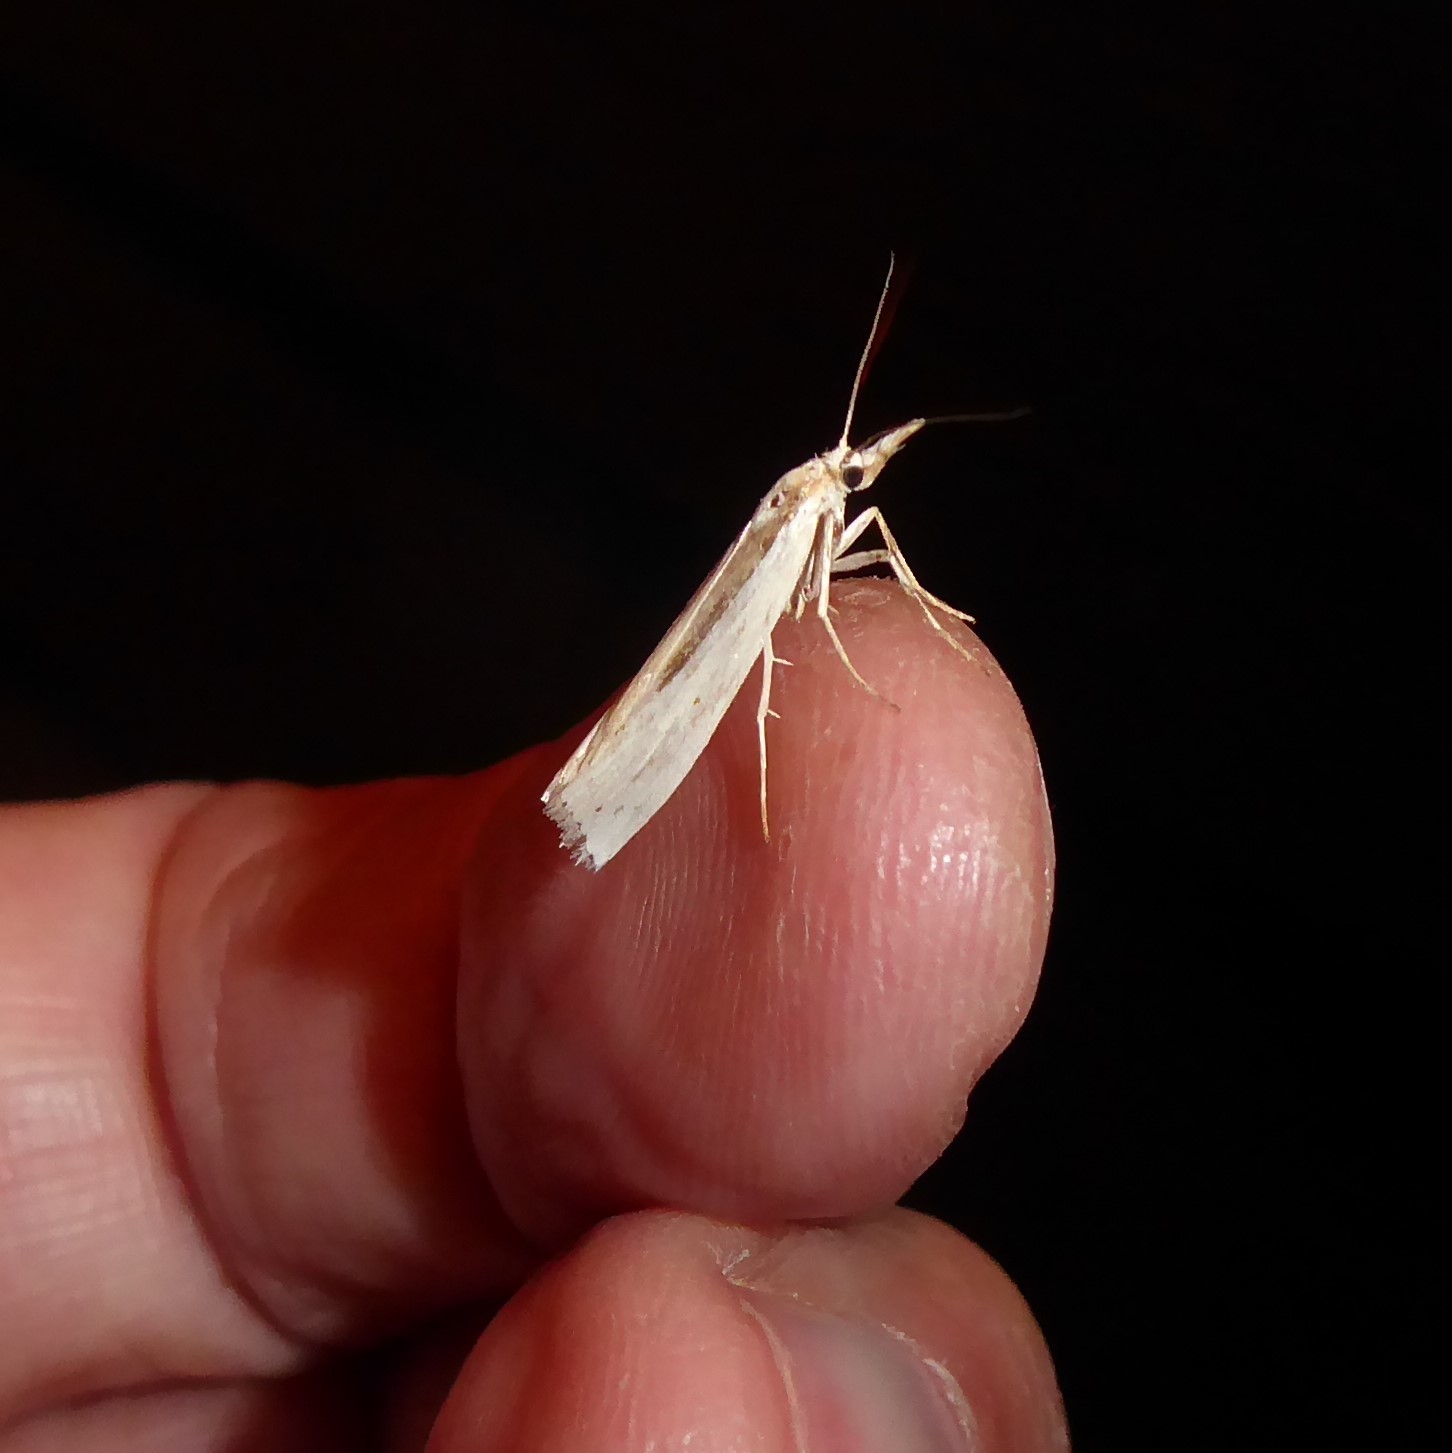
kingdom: Animalia
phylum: Arthropoda
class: Insecta
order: Lepidoptera
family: Crambidae
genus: Orocrambus
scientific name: Orocrambus ramosellus
